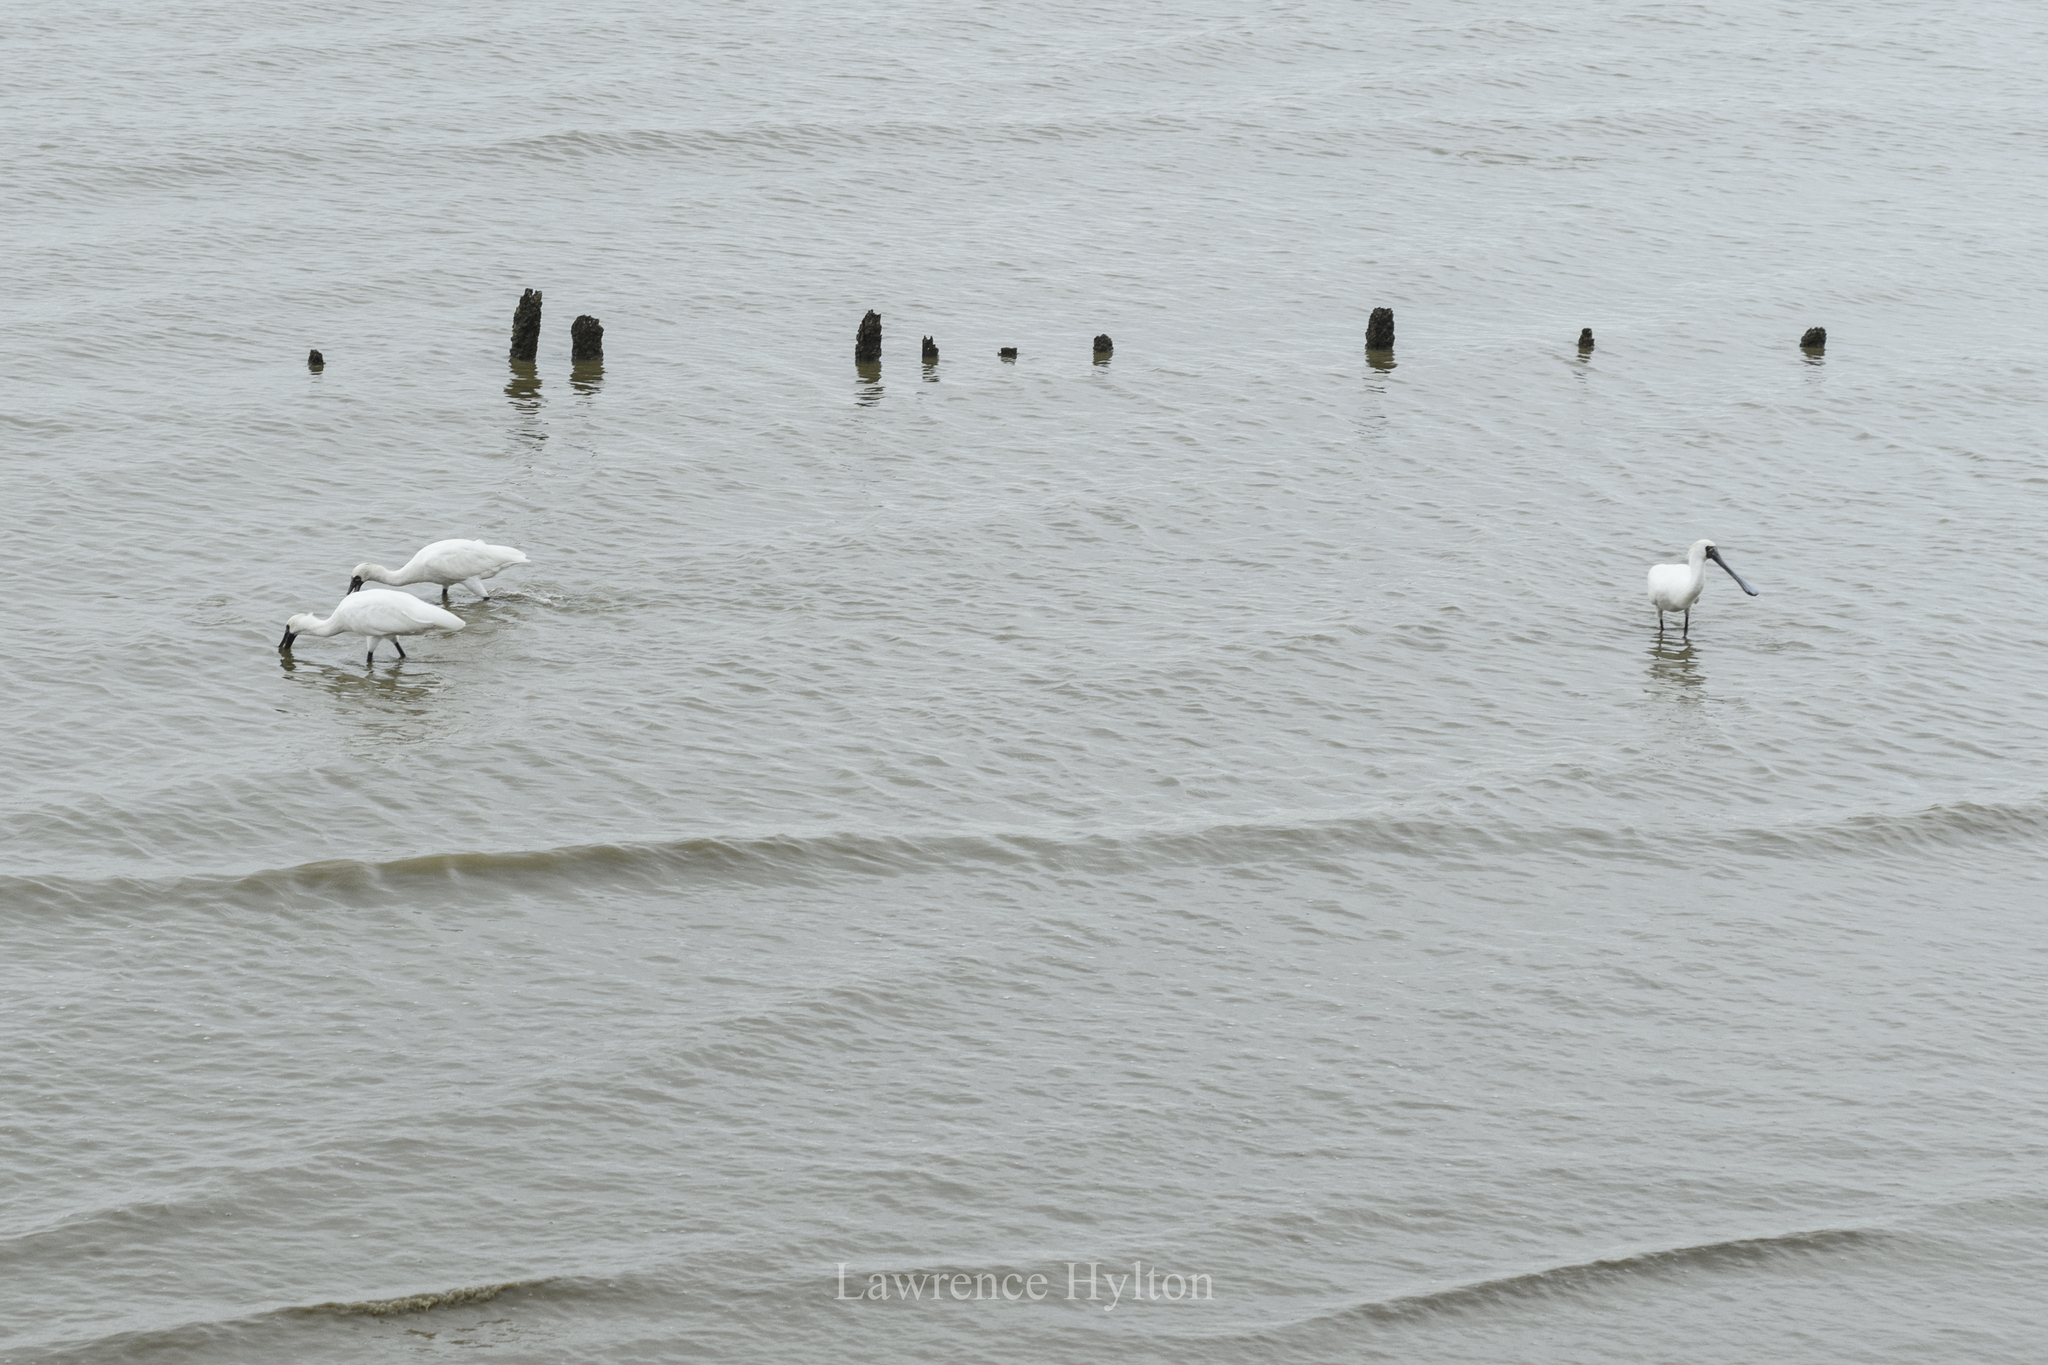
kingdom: Animalia
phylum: Chordata
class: Aves
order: Pelecaniformes
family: Threskiornithidae
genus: Platalea
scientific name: Platalea minor
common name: Black-faced spoonbill
